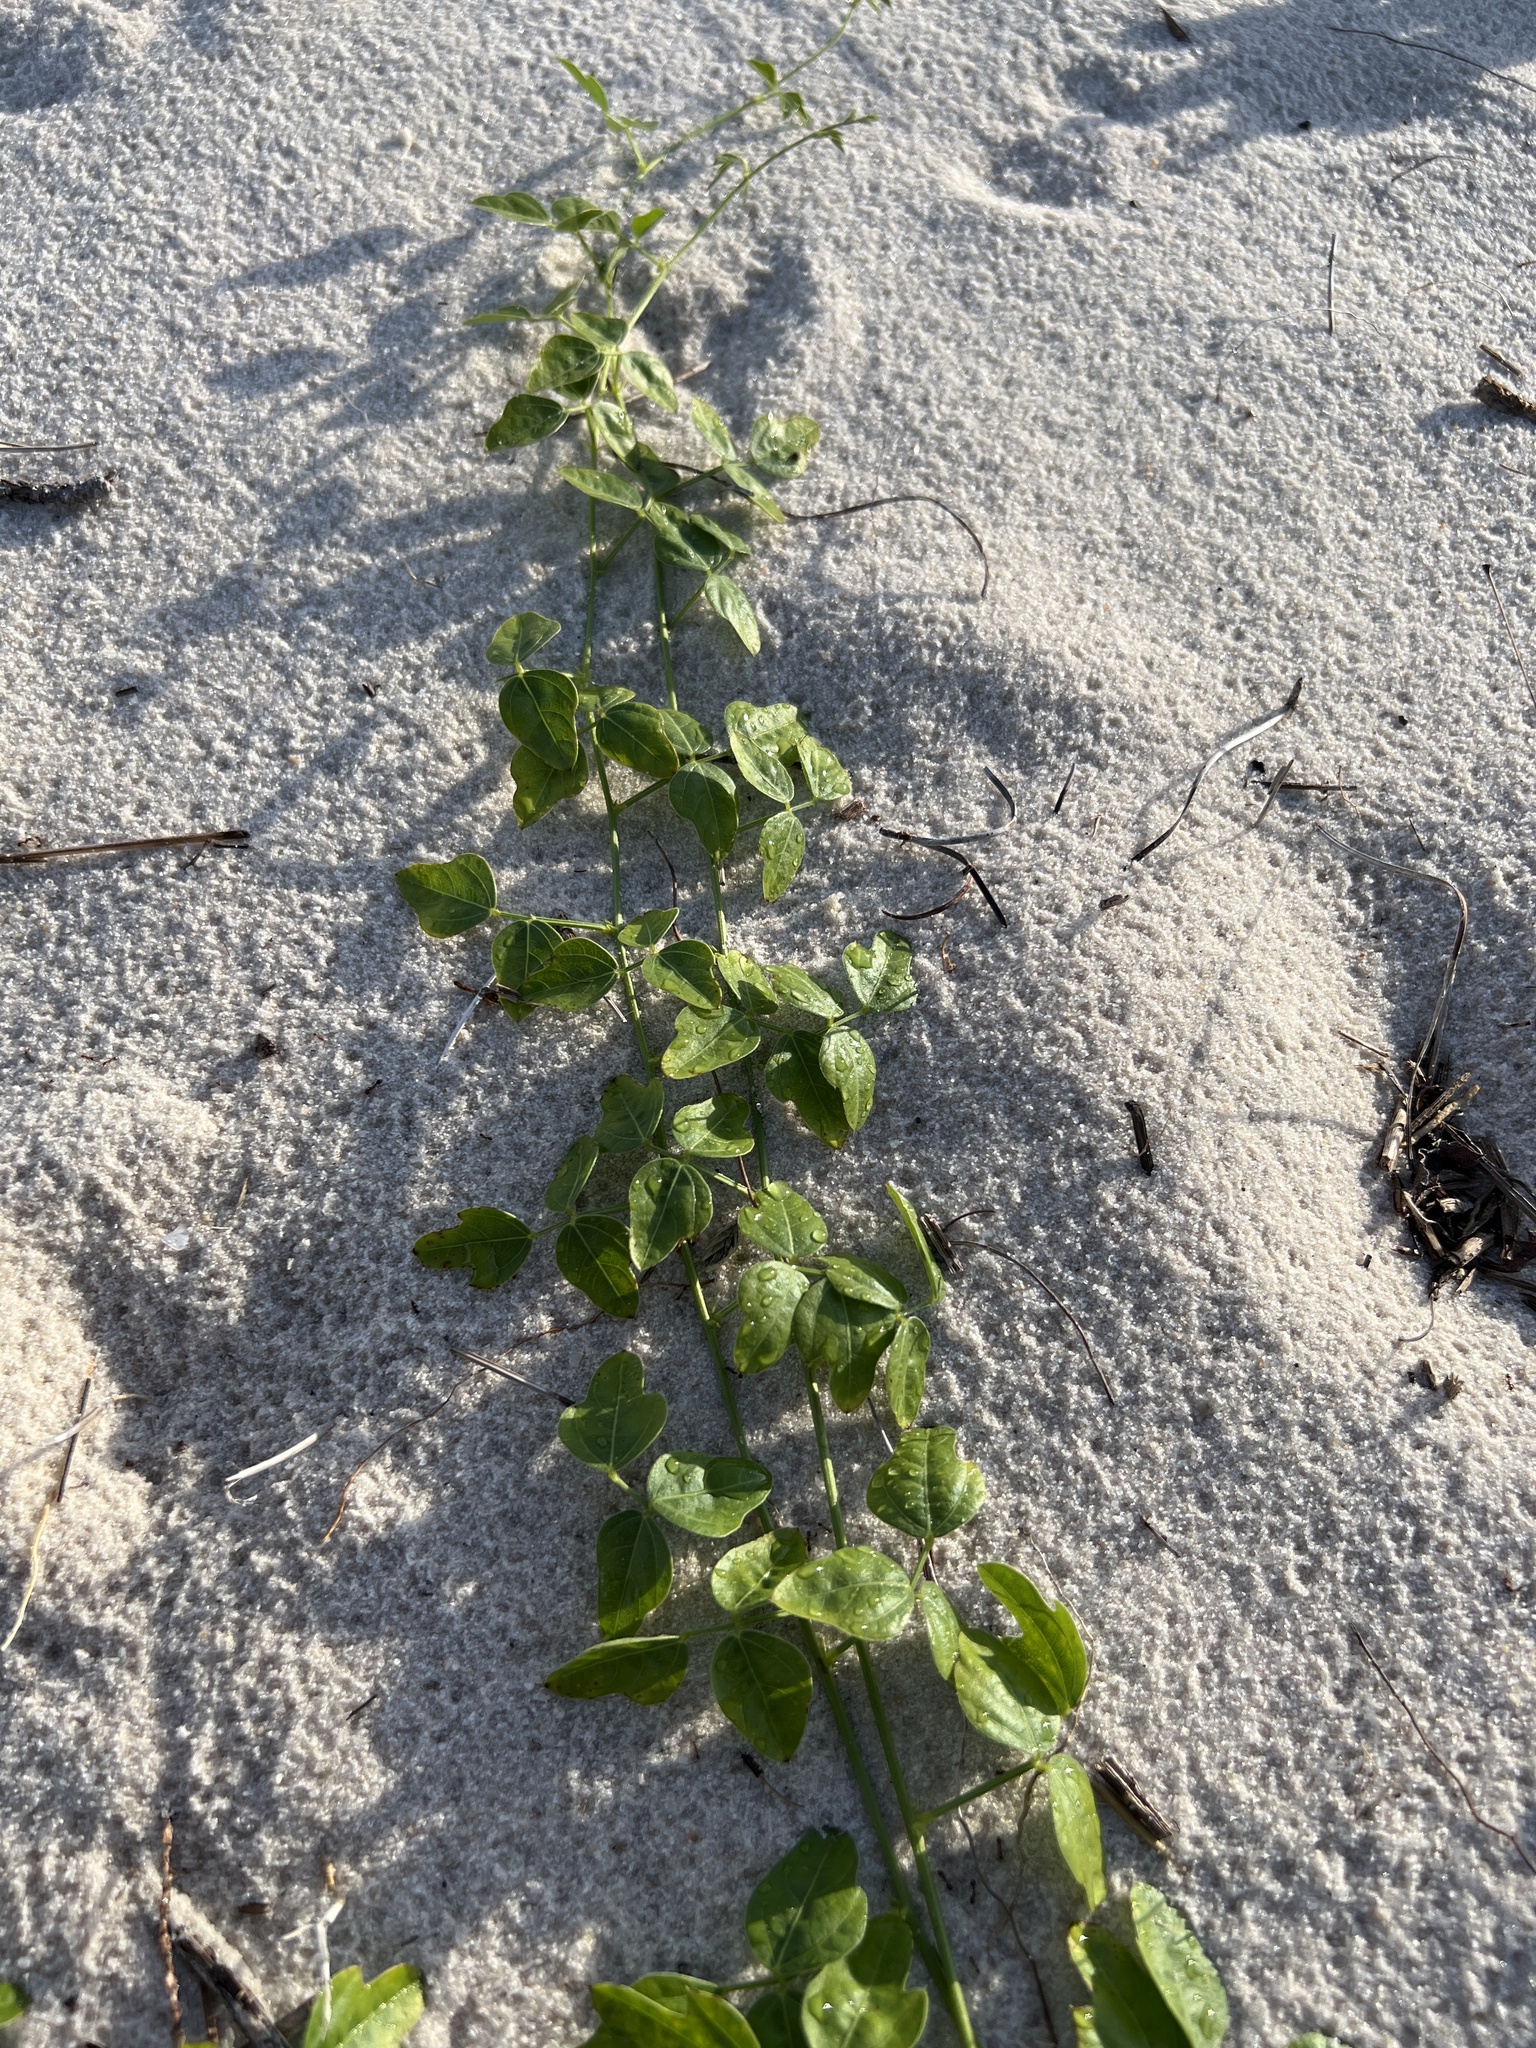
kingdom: Plantae
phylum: Tracheophyta
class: Magnoliopsida
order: Fabales
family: Fabaceae
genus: Strophostyles
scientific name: Strophostyles helvola
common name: Trailing wild bean
